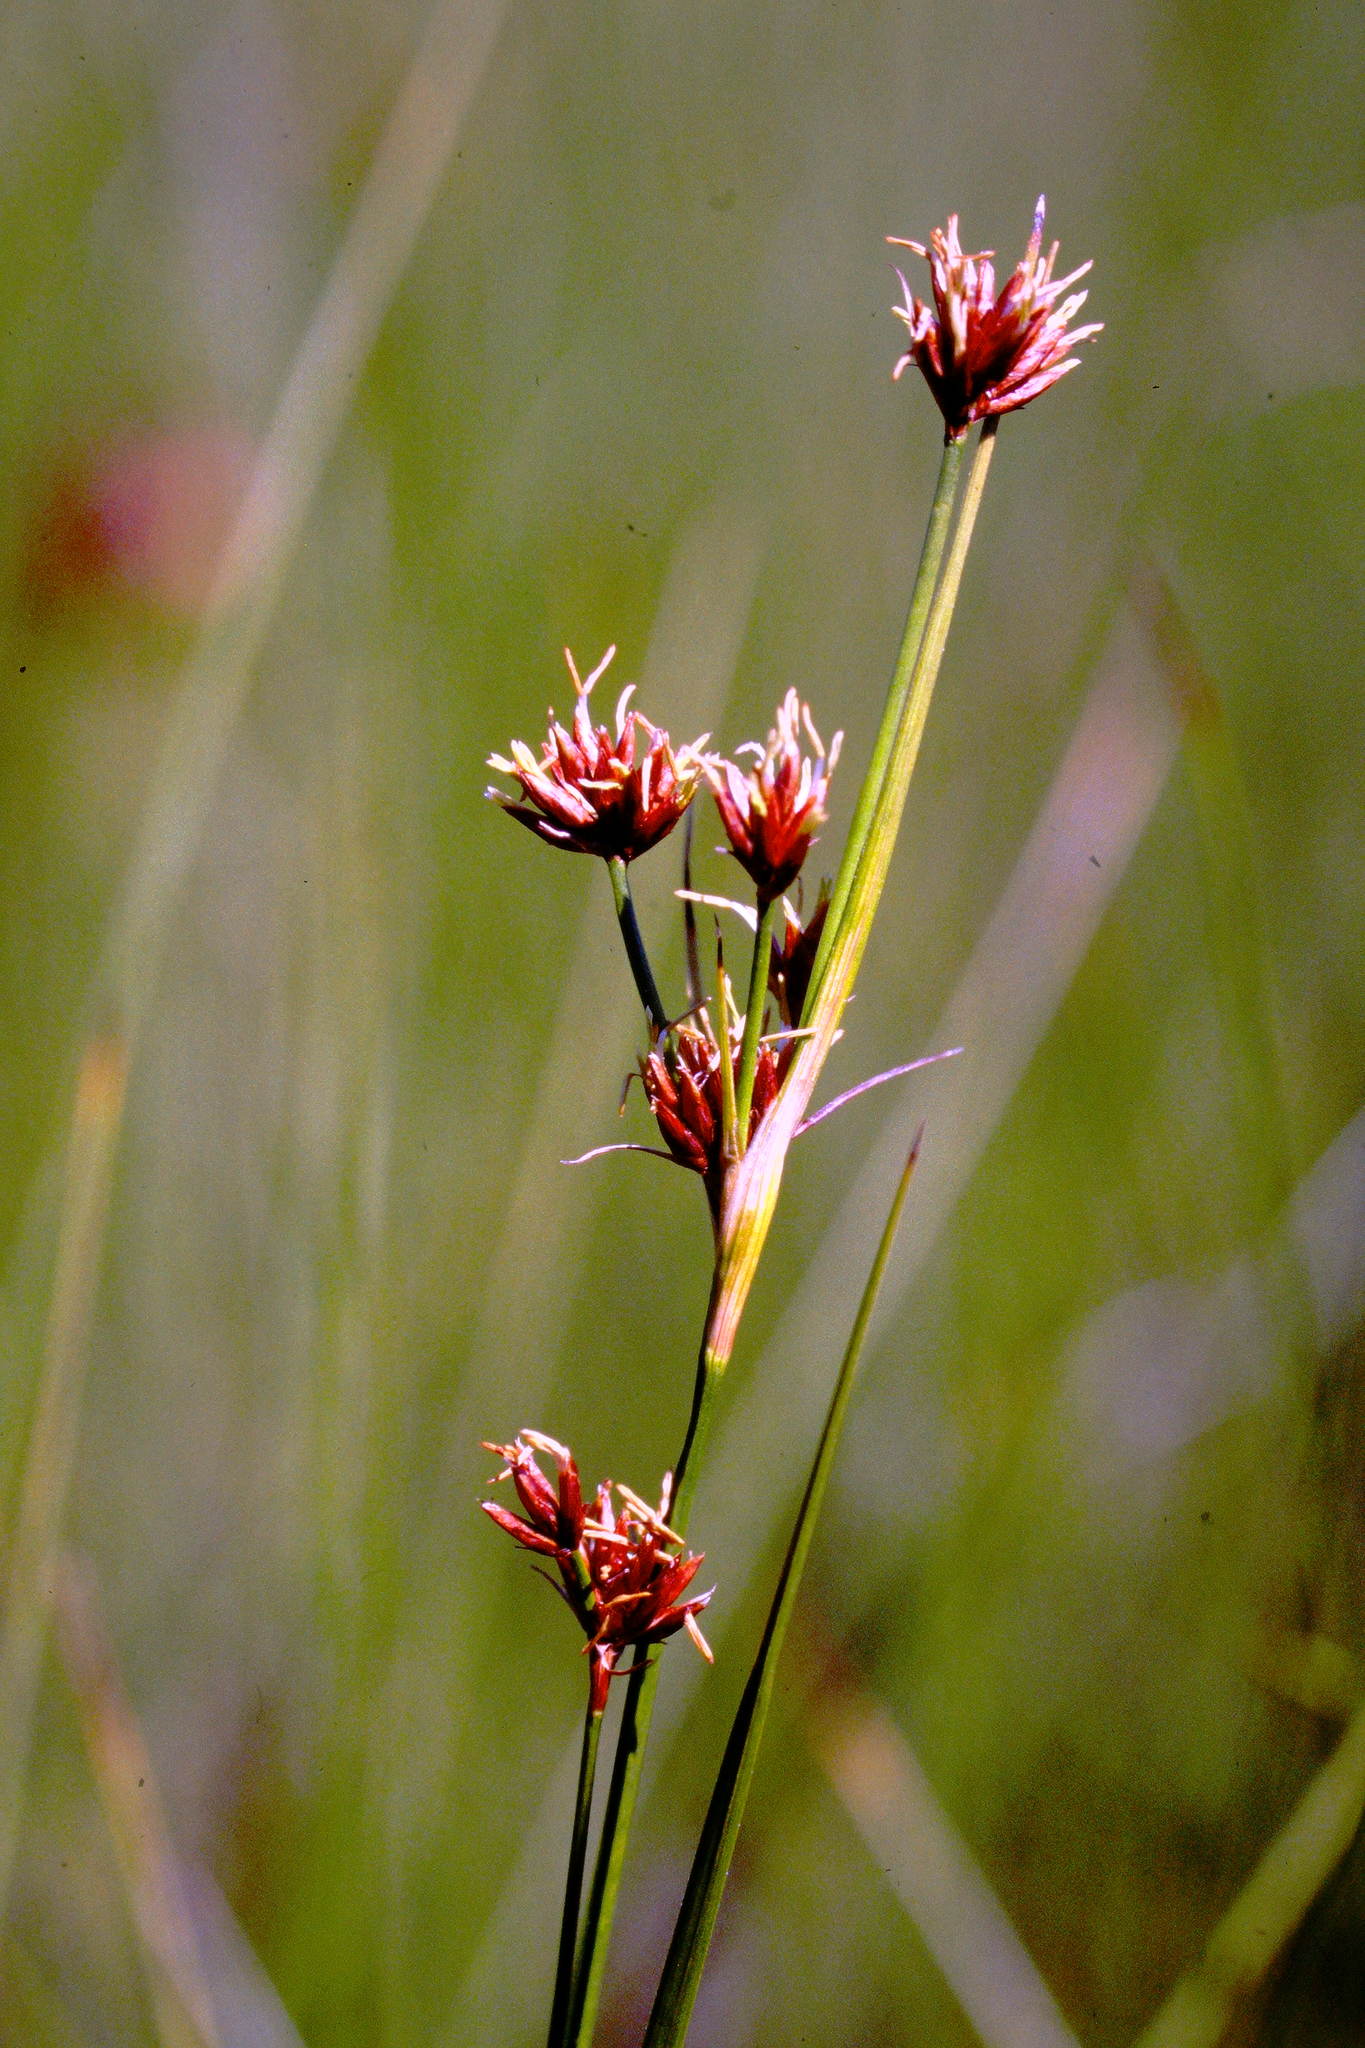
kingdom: Plantae
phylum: Tracheophyta
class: Liliopsida
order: Poales
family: Cyperaceae
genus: Cladium
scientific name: Cladium mariscoides
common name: Smooth sawgrass
